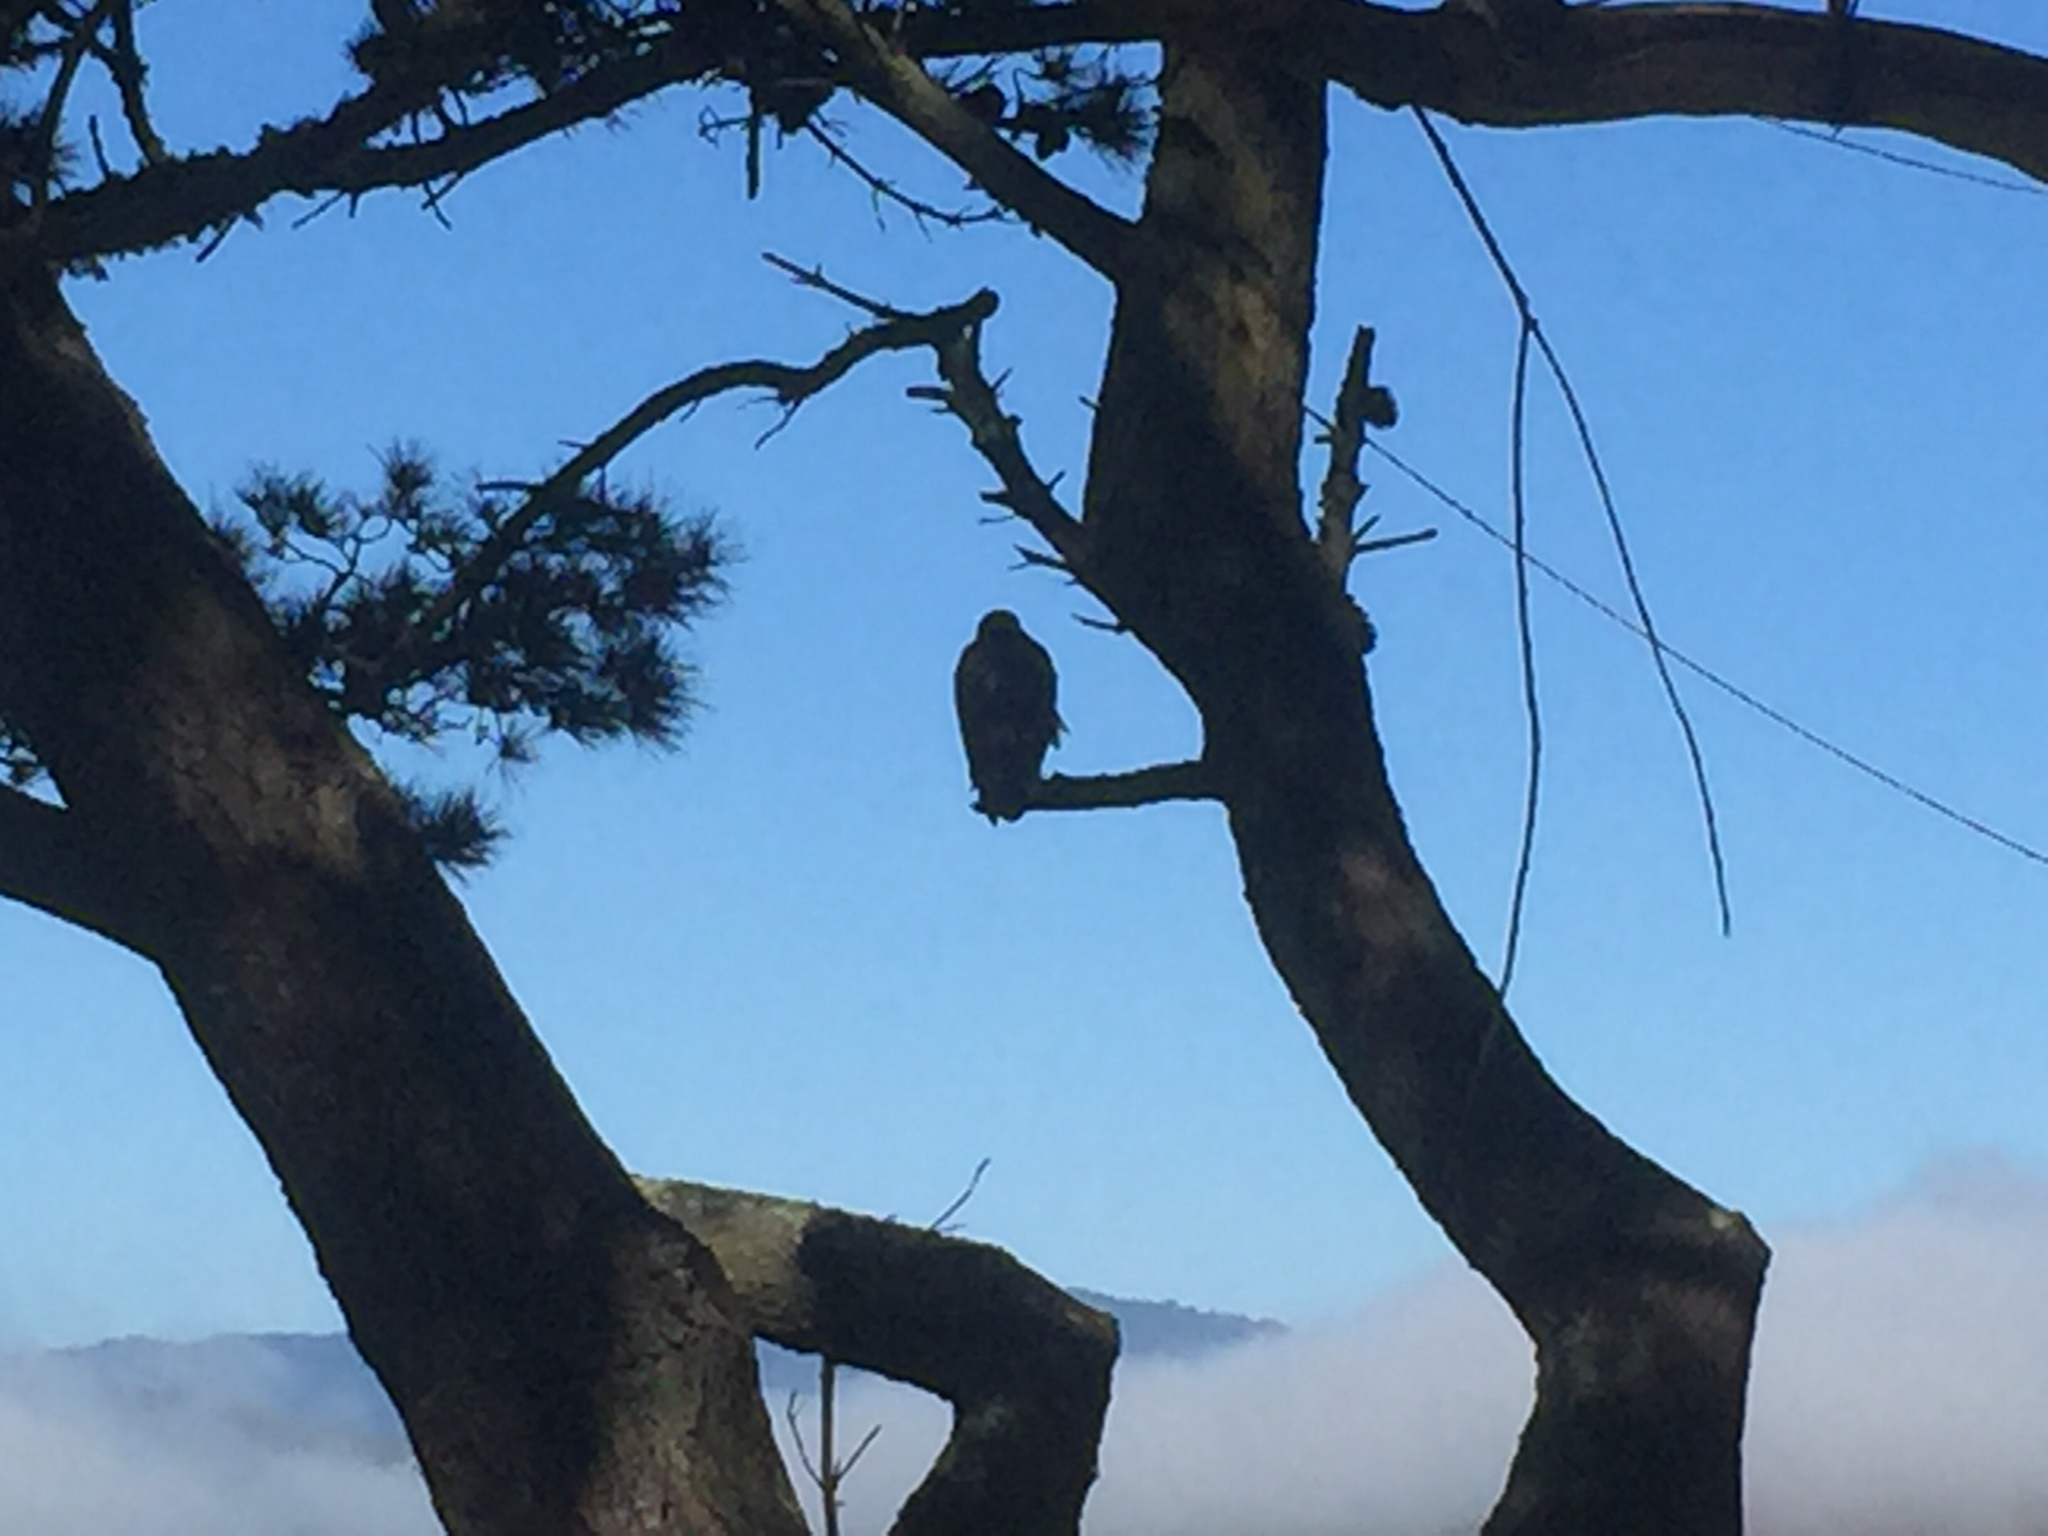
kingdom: Animalia
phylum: Chordata
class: Aves
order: Accipitriformes
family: Accipitridae
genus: Buteo
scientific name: Buteo jamaicensis
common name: Red-tailed hawk
